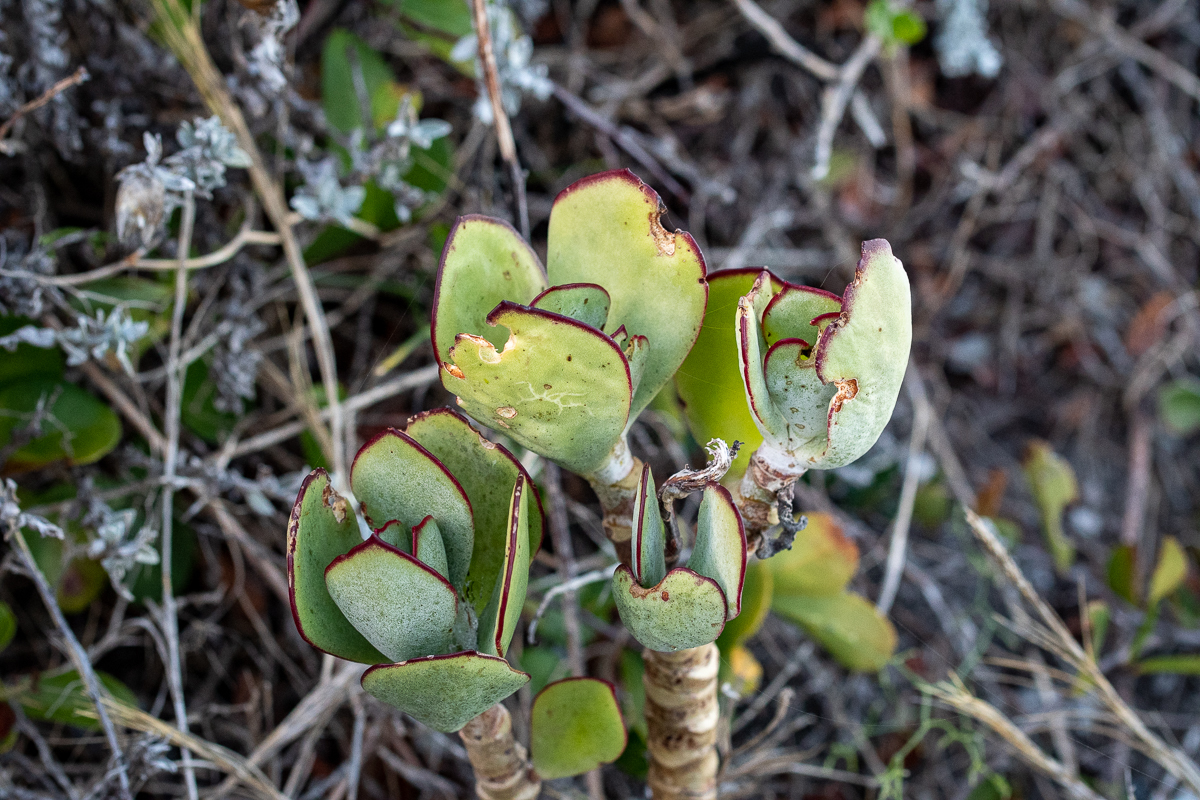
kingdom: Plantae
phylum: Tracheophyta
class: Magnoliopsida
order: Saxifragales
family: Crassulaceae
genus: Cotyledon
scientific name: Cotyledon orbiculata
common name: Pig's ear
